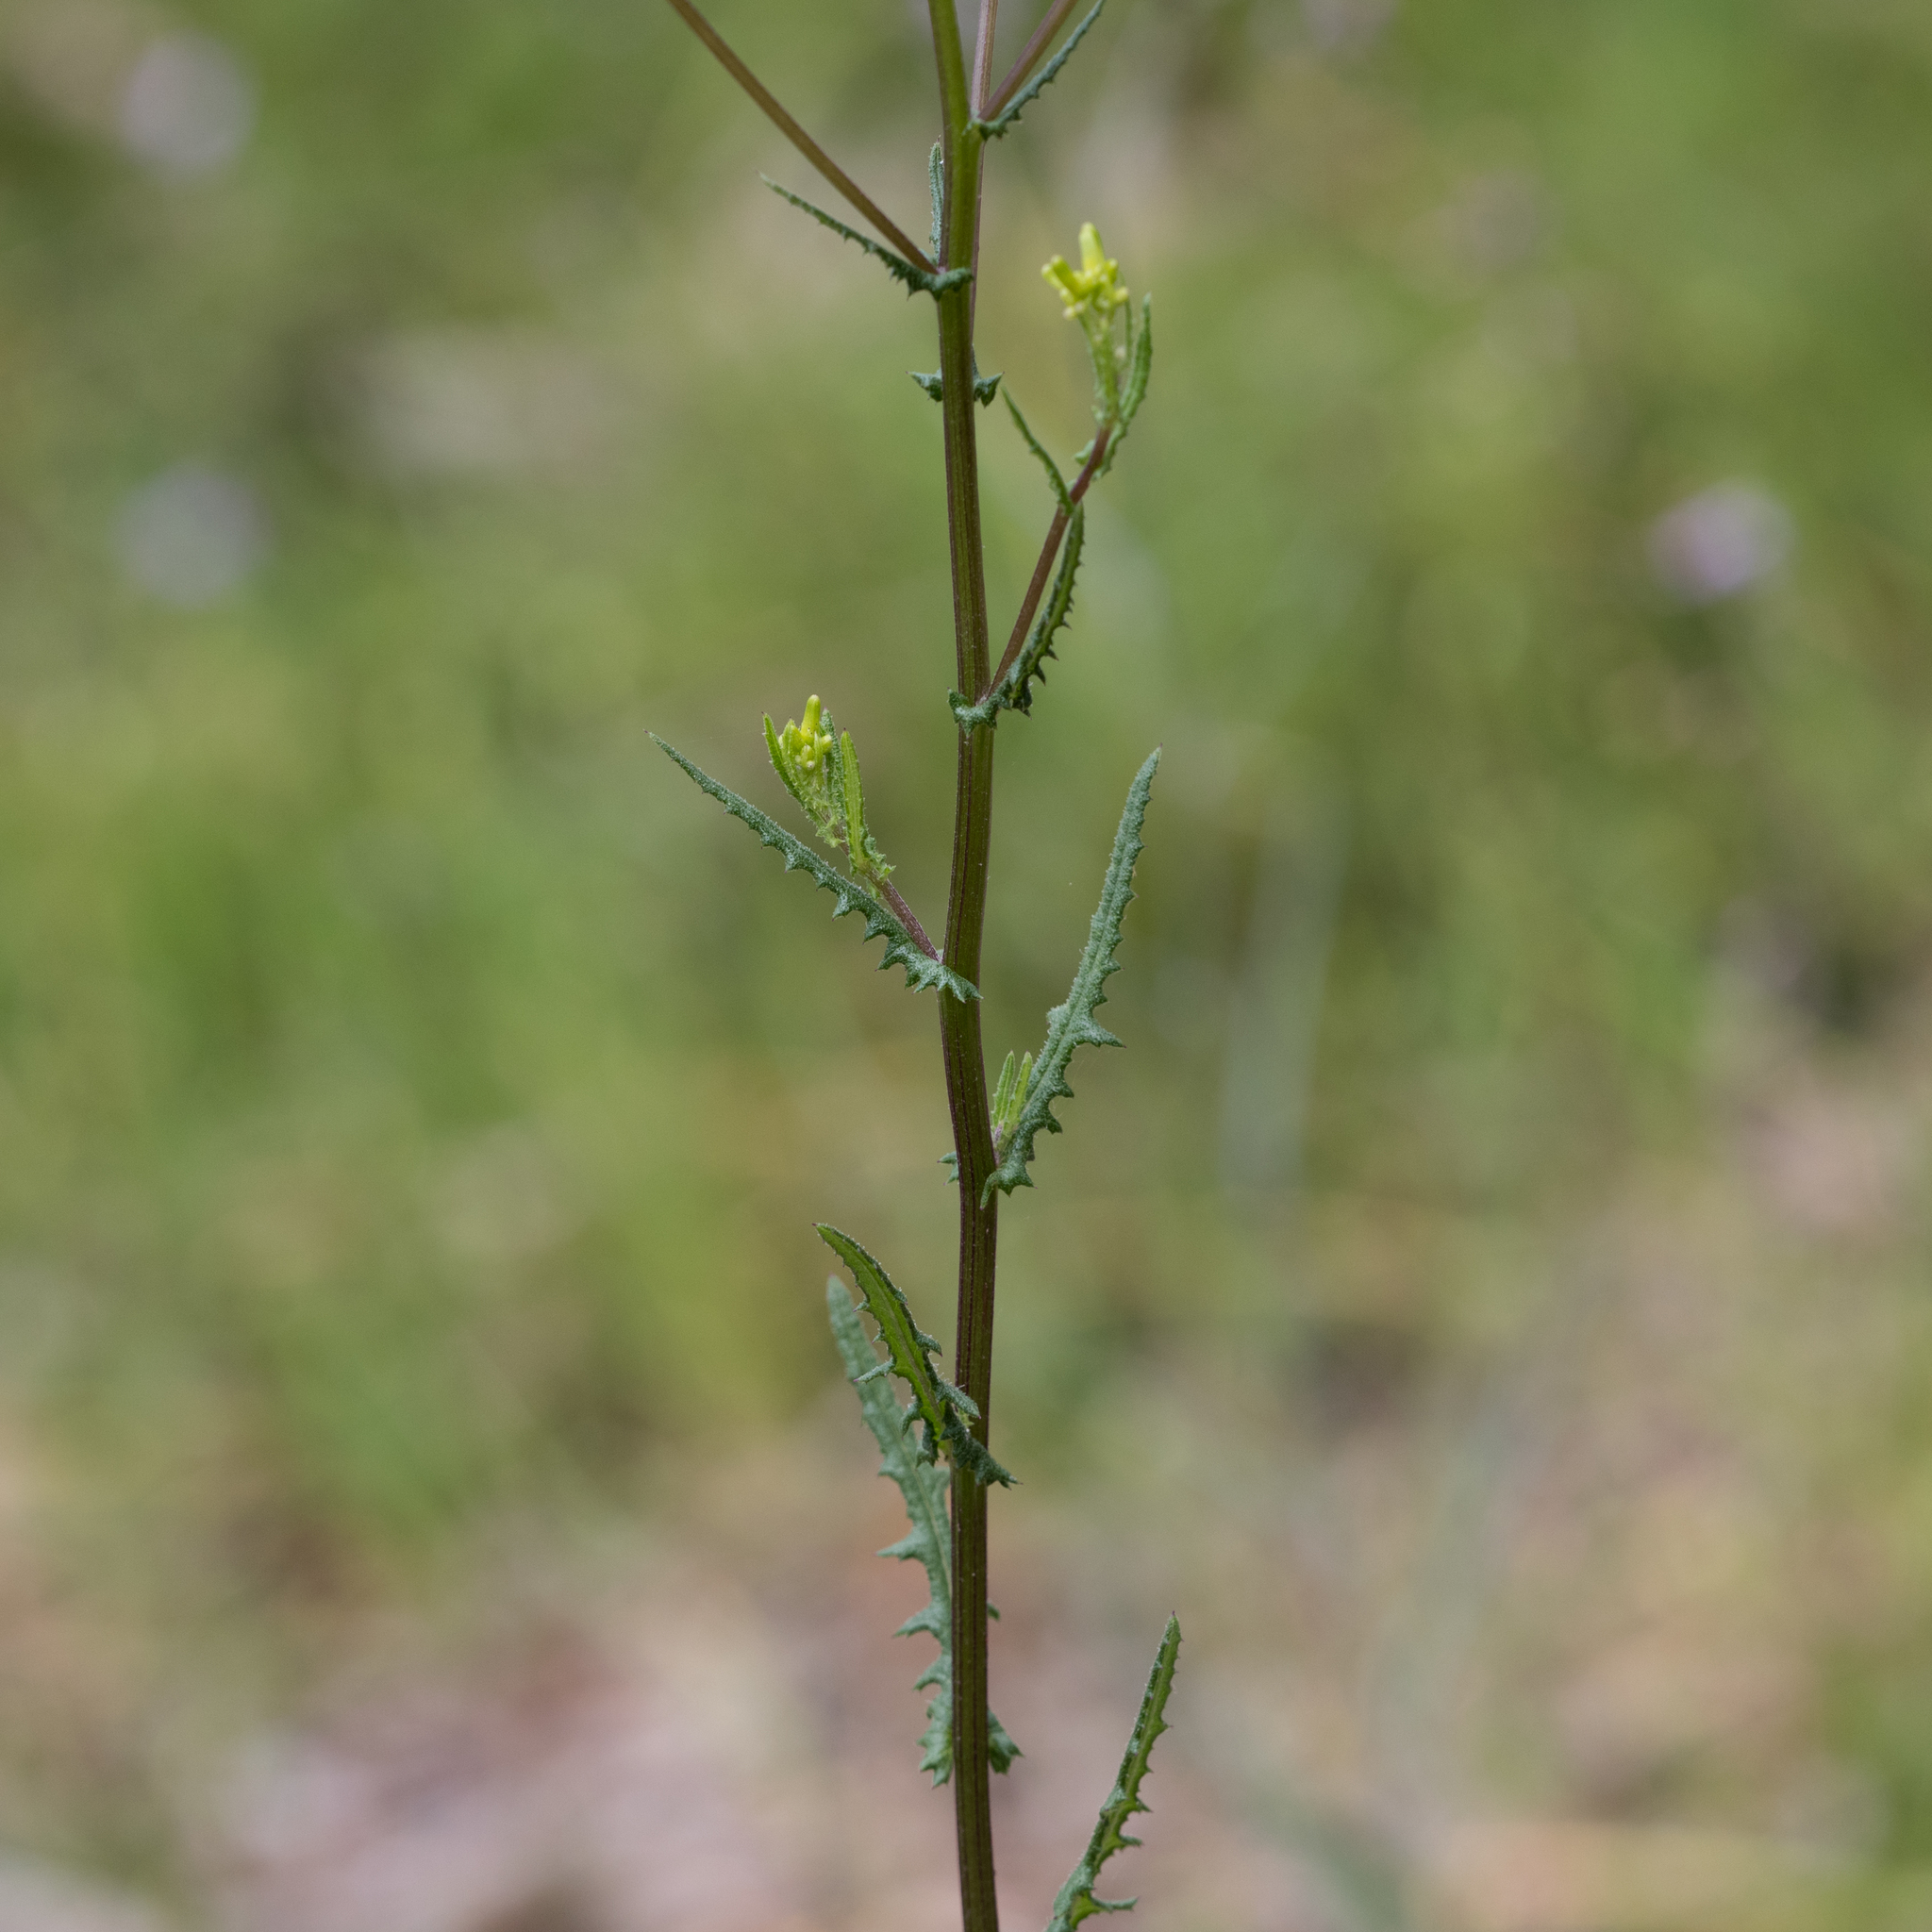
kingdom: Plantae
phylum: Tracheophyta
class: Magnoliopsida
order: Asterales
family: Asteraceae
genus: Senecio
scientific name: Senecio picridioides
